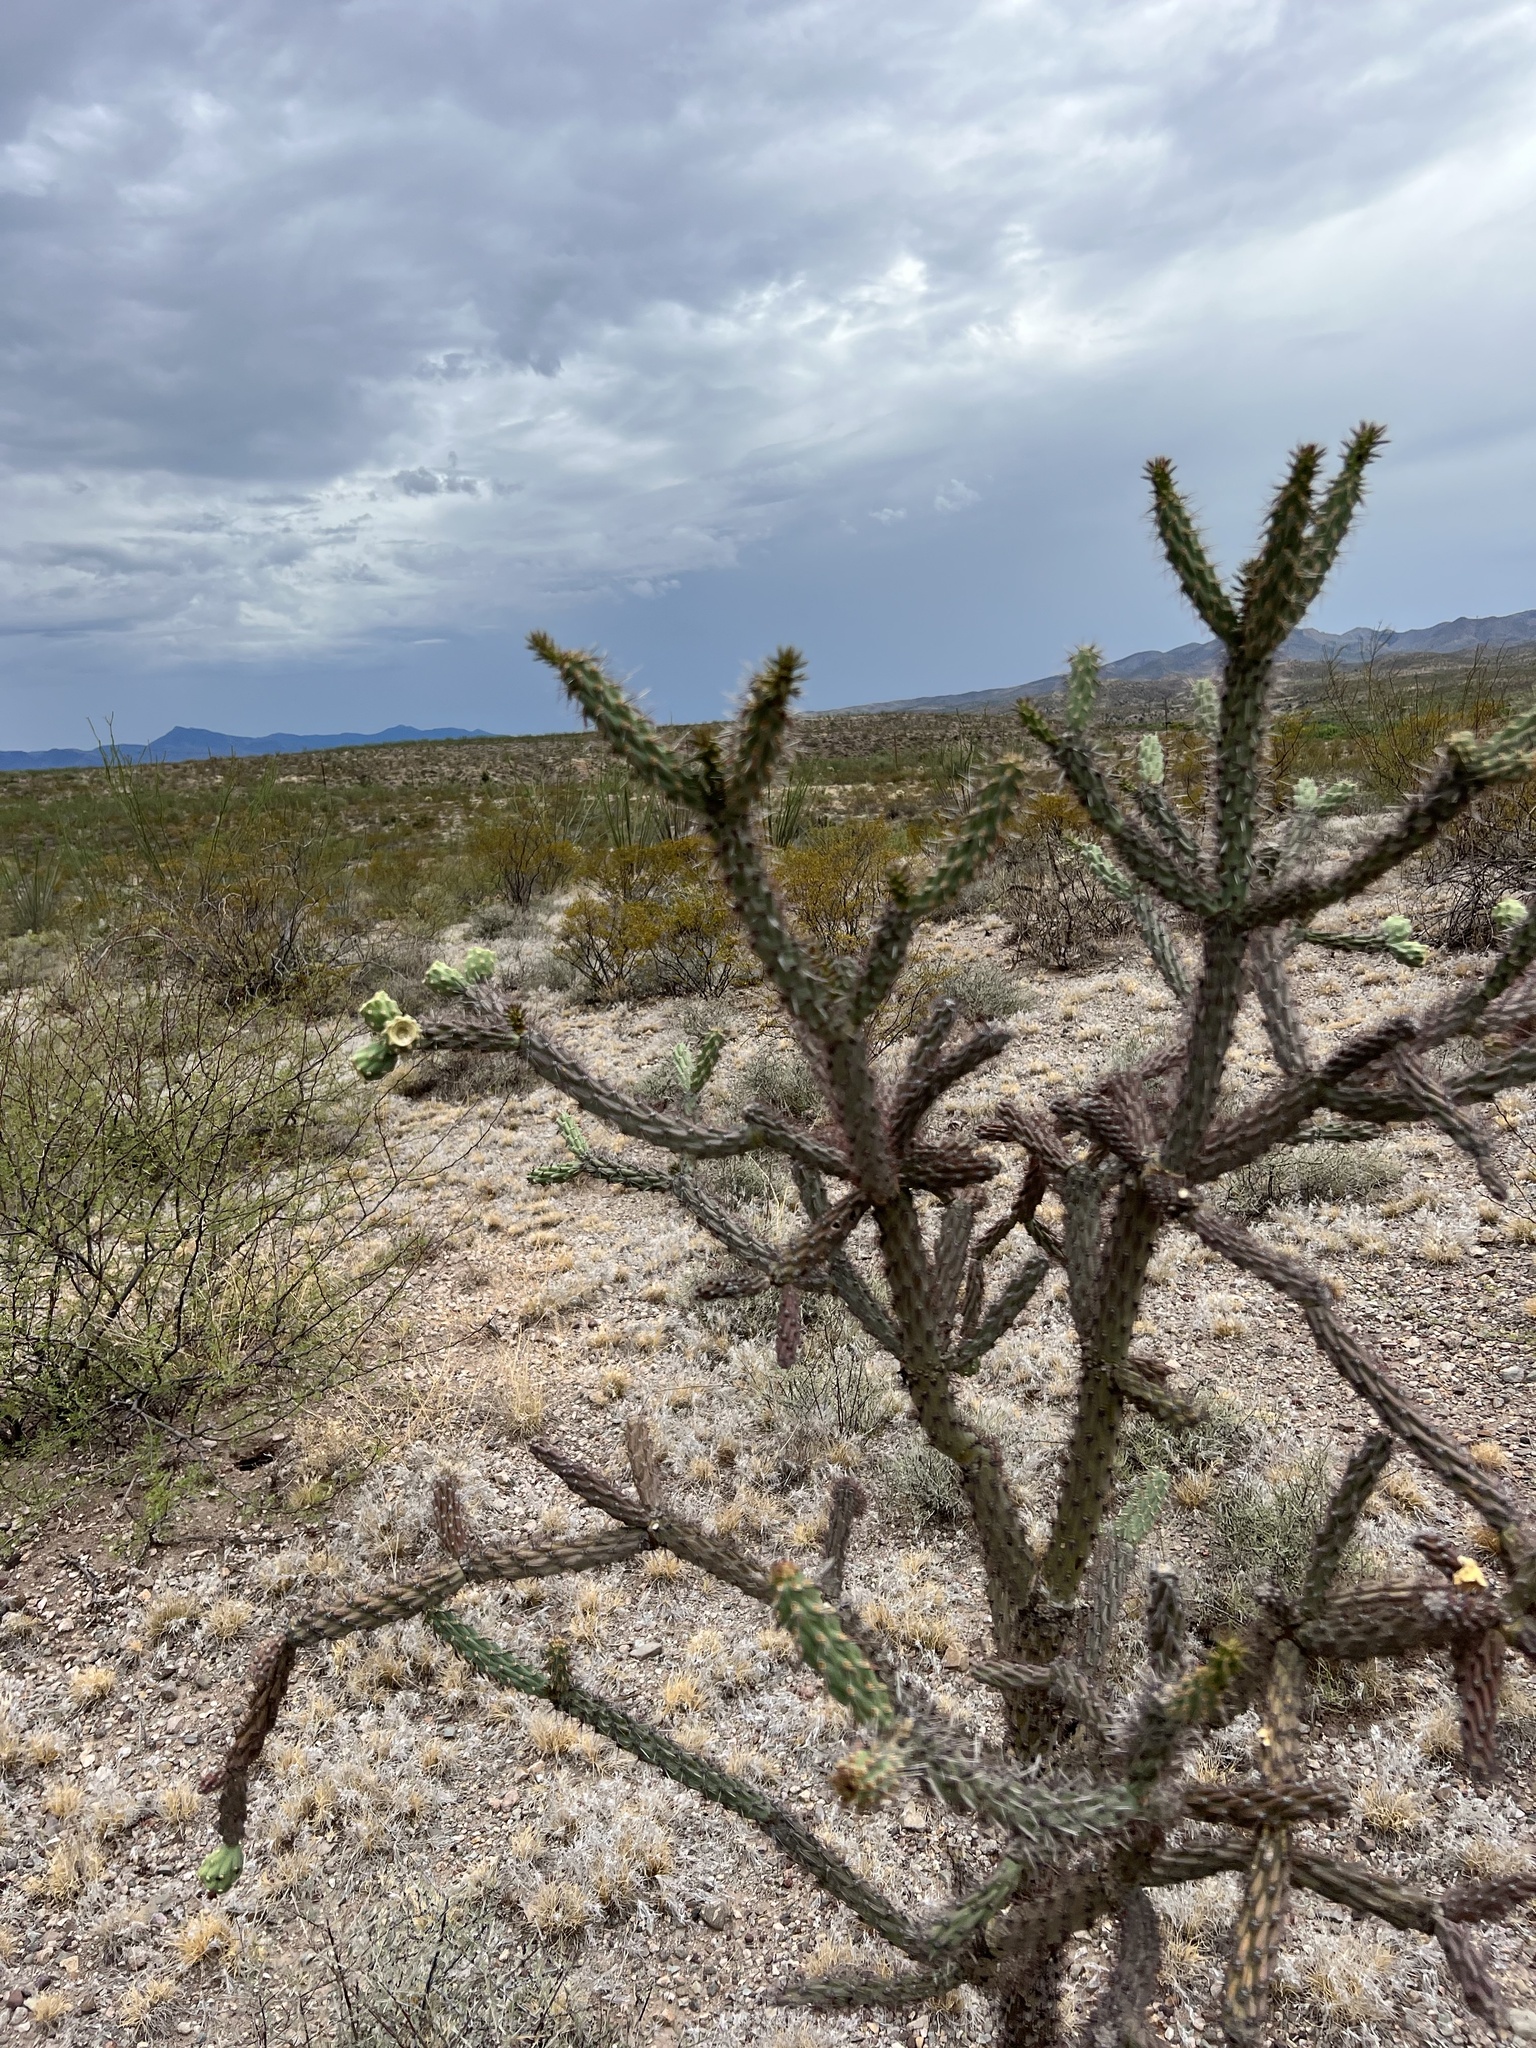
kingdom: Plantae
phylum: Tracheophyta
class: Magnoliopsida
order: Caryophyllales
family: Cactaceae
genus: Cylindropuntia
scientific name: Cylindropuntia thurberi
